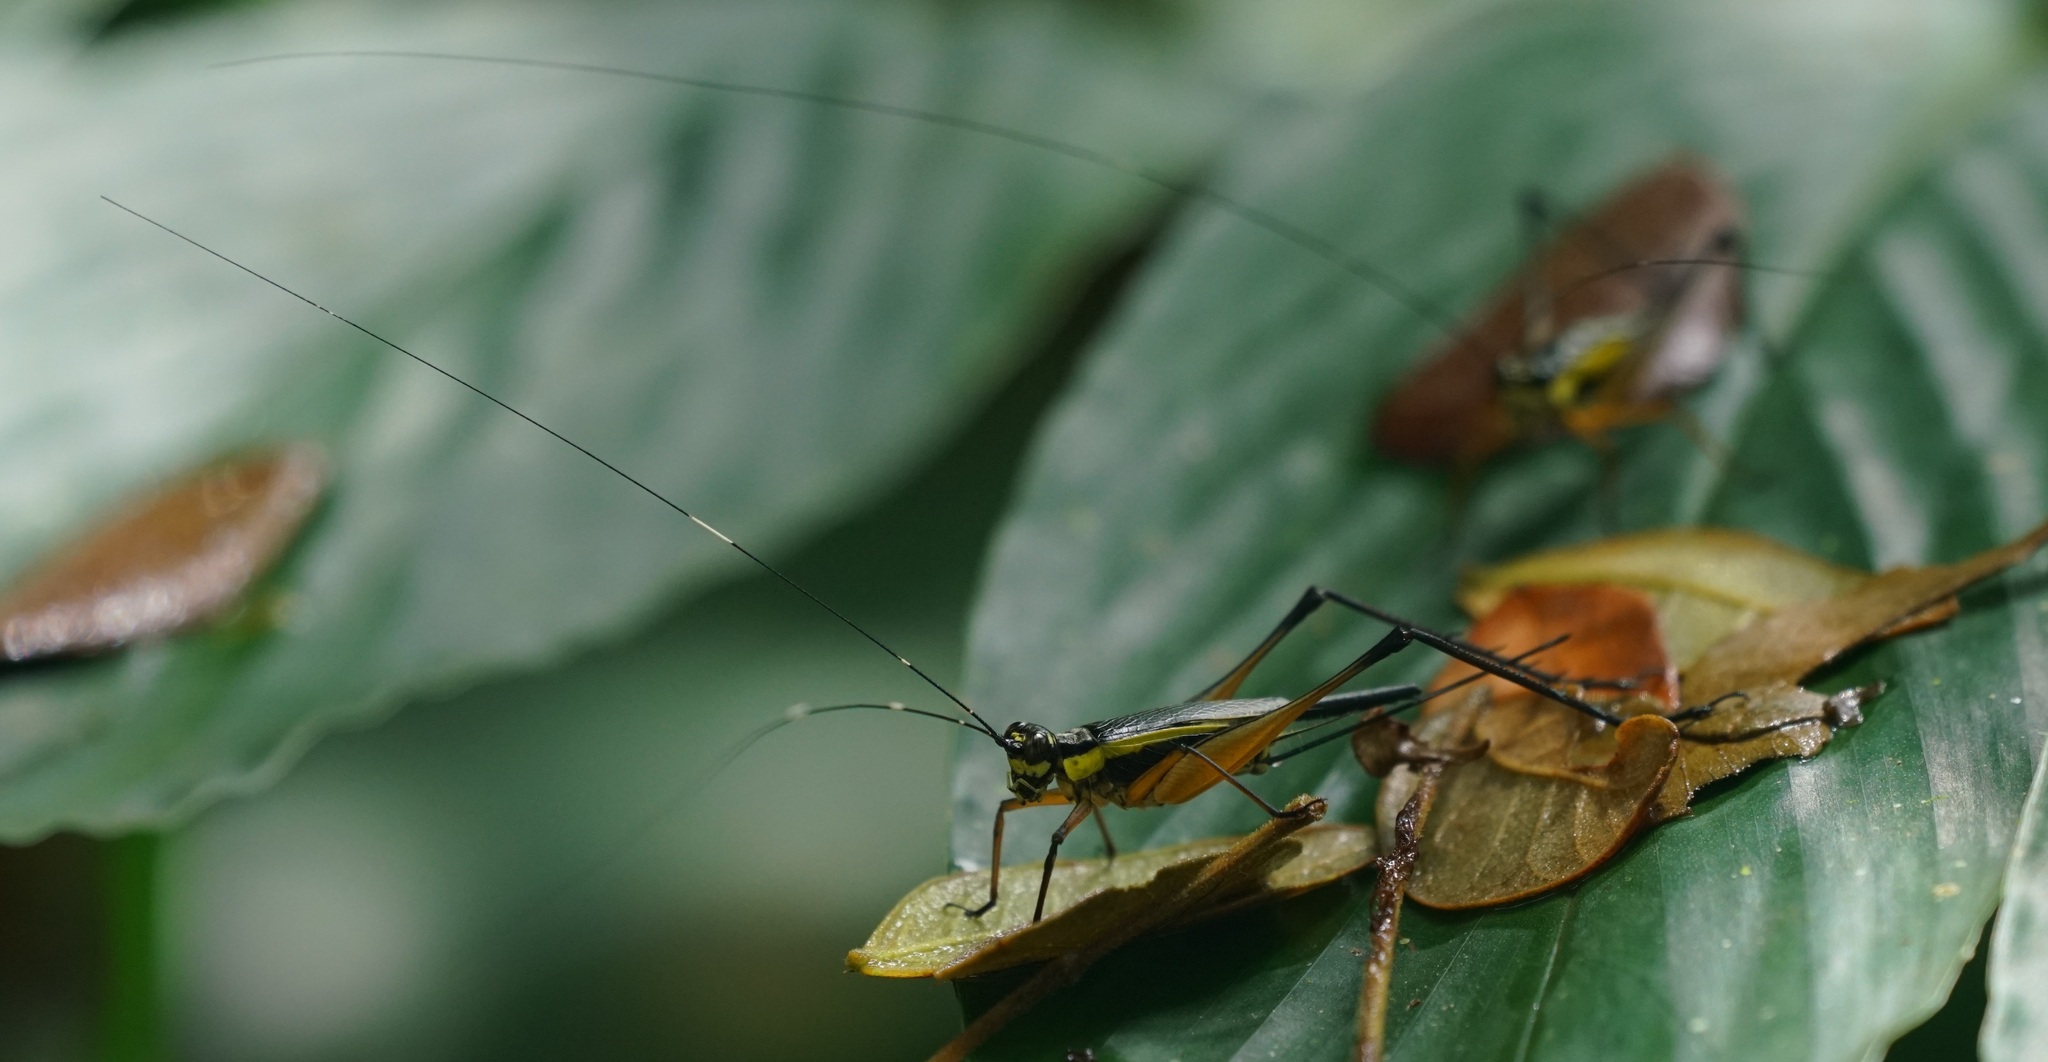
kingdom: Animalia
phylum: Arthropoda
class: Insecta
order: Orthoptera
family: Gryllidae
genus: Nisitrus
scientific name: Nisitrus danum
